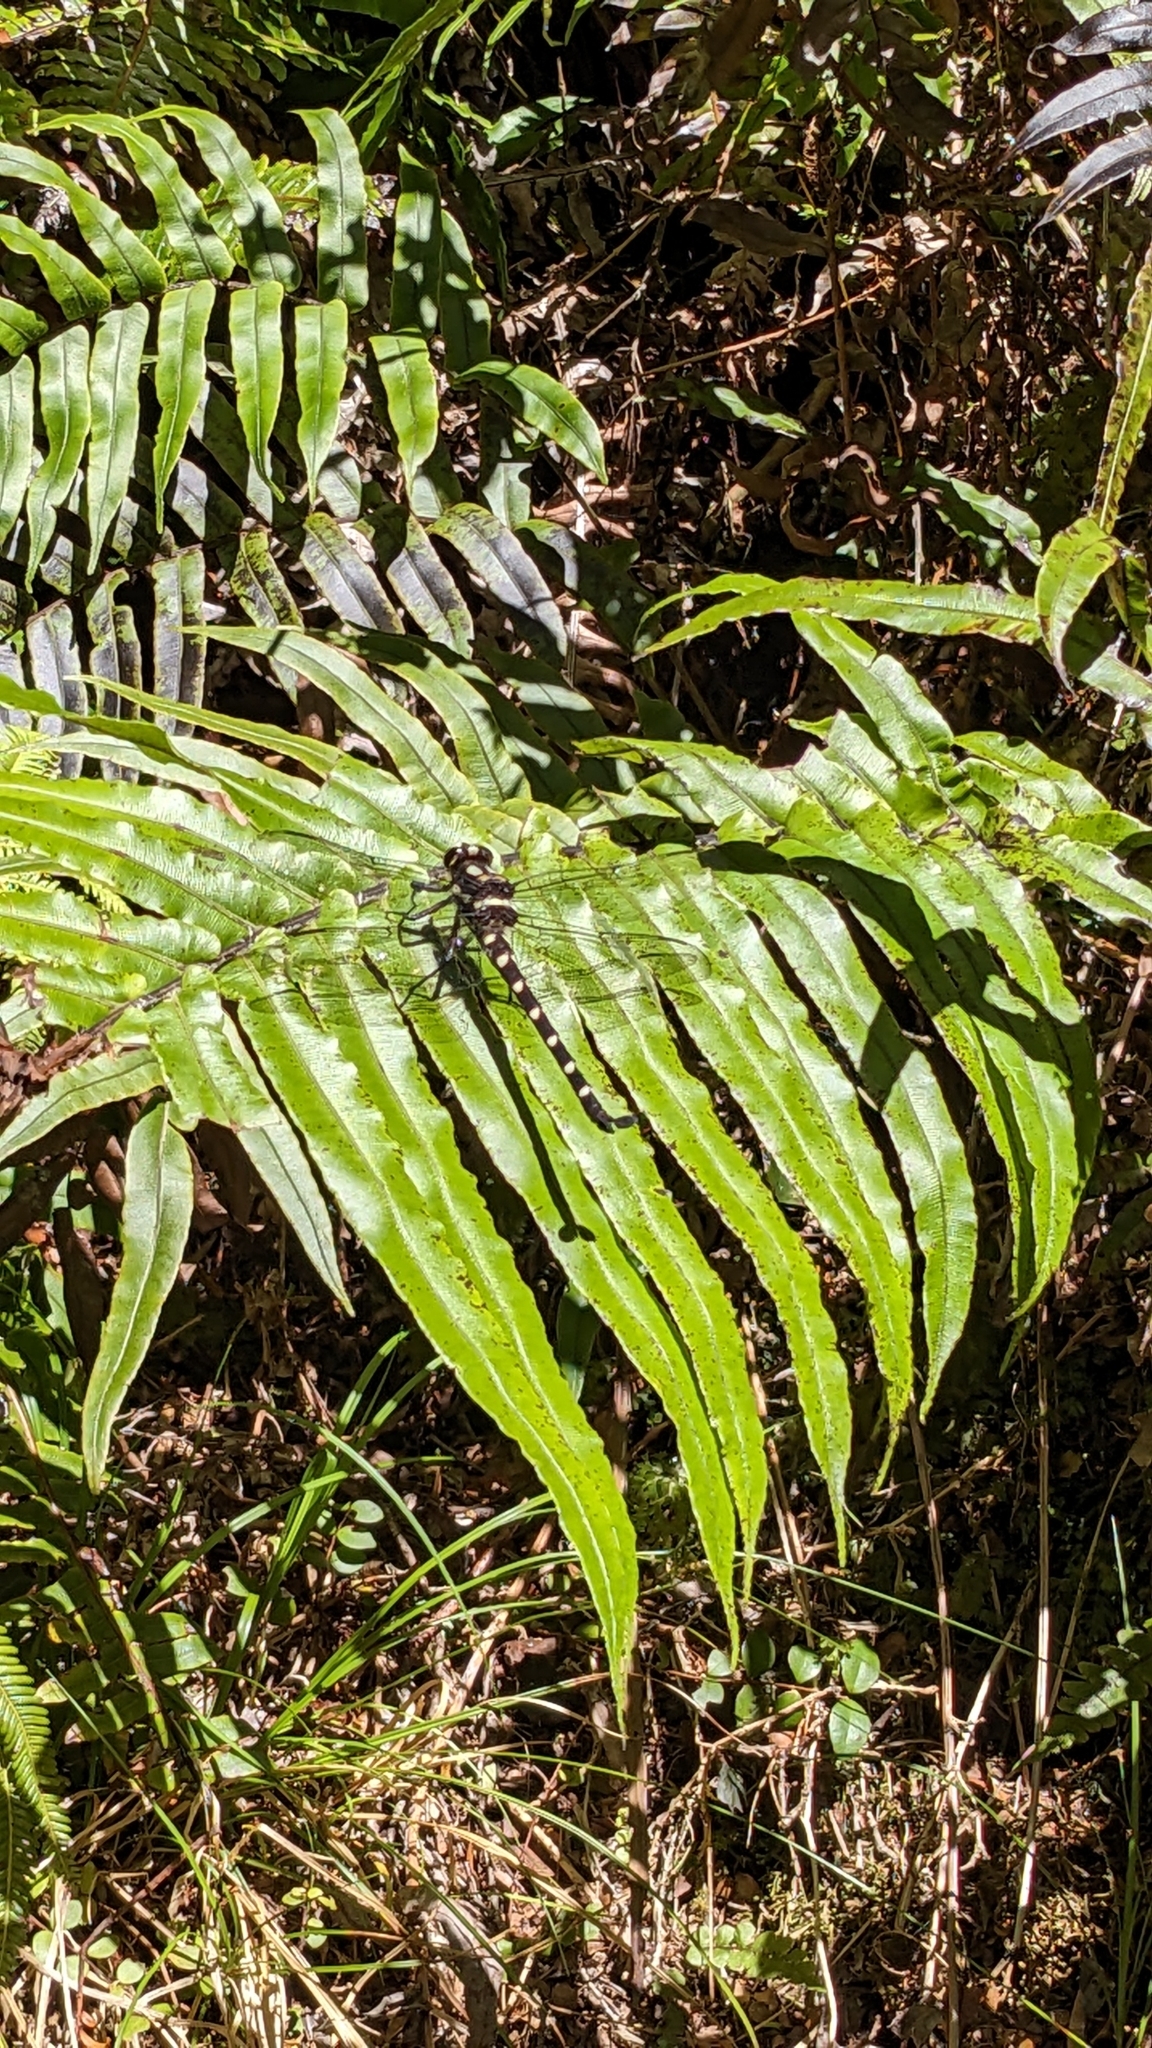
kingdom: Animalia
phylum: Arthropoda
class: Insecta
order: Odonata
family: Petaluridae
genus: Uropetala
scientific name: Uropetala carovei
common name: Bush giant dragonfly
